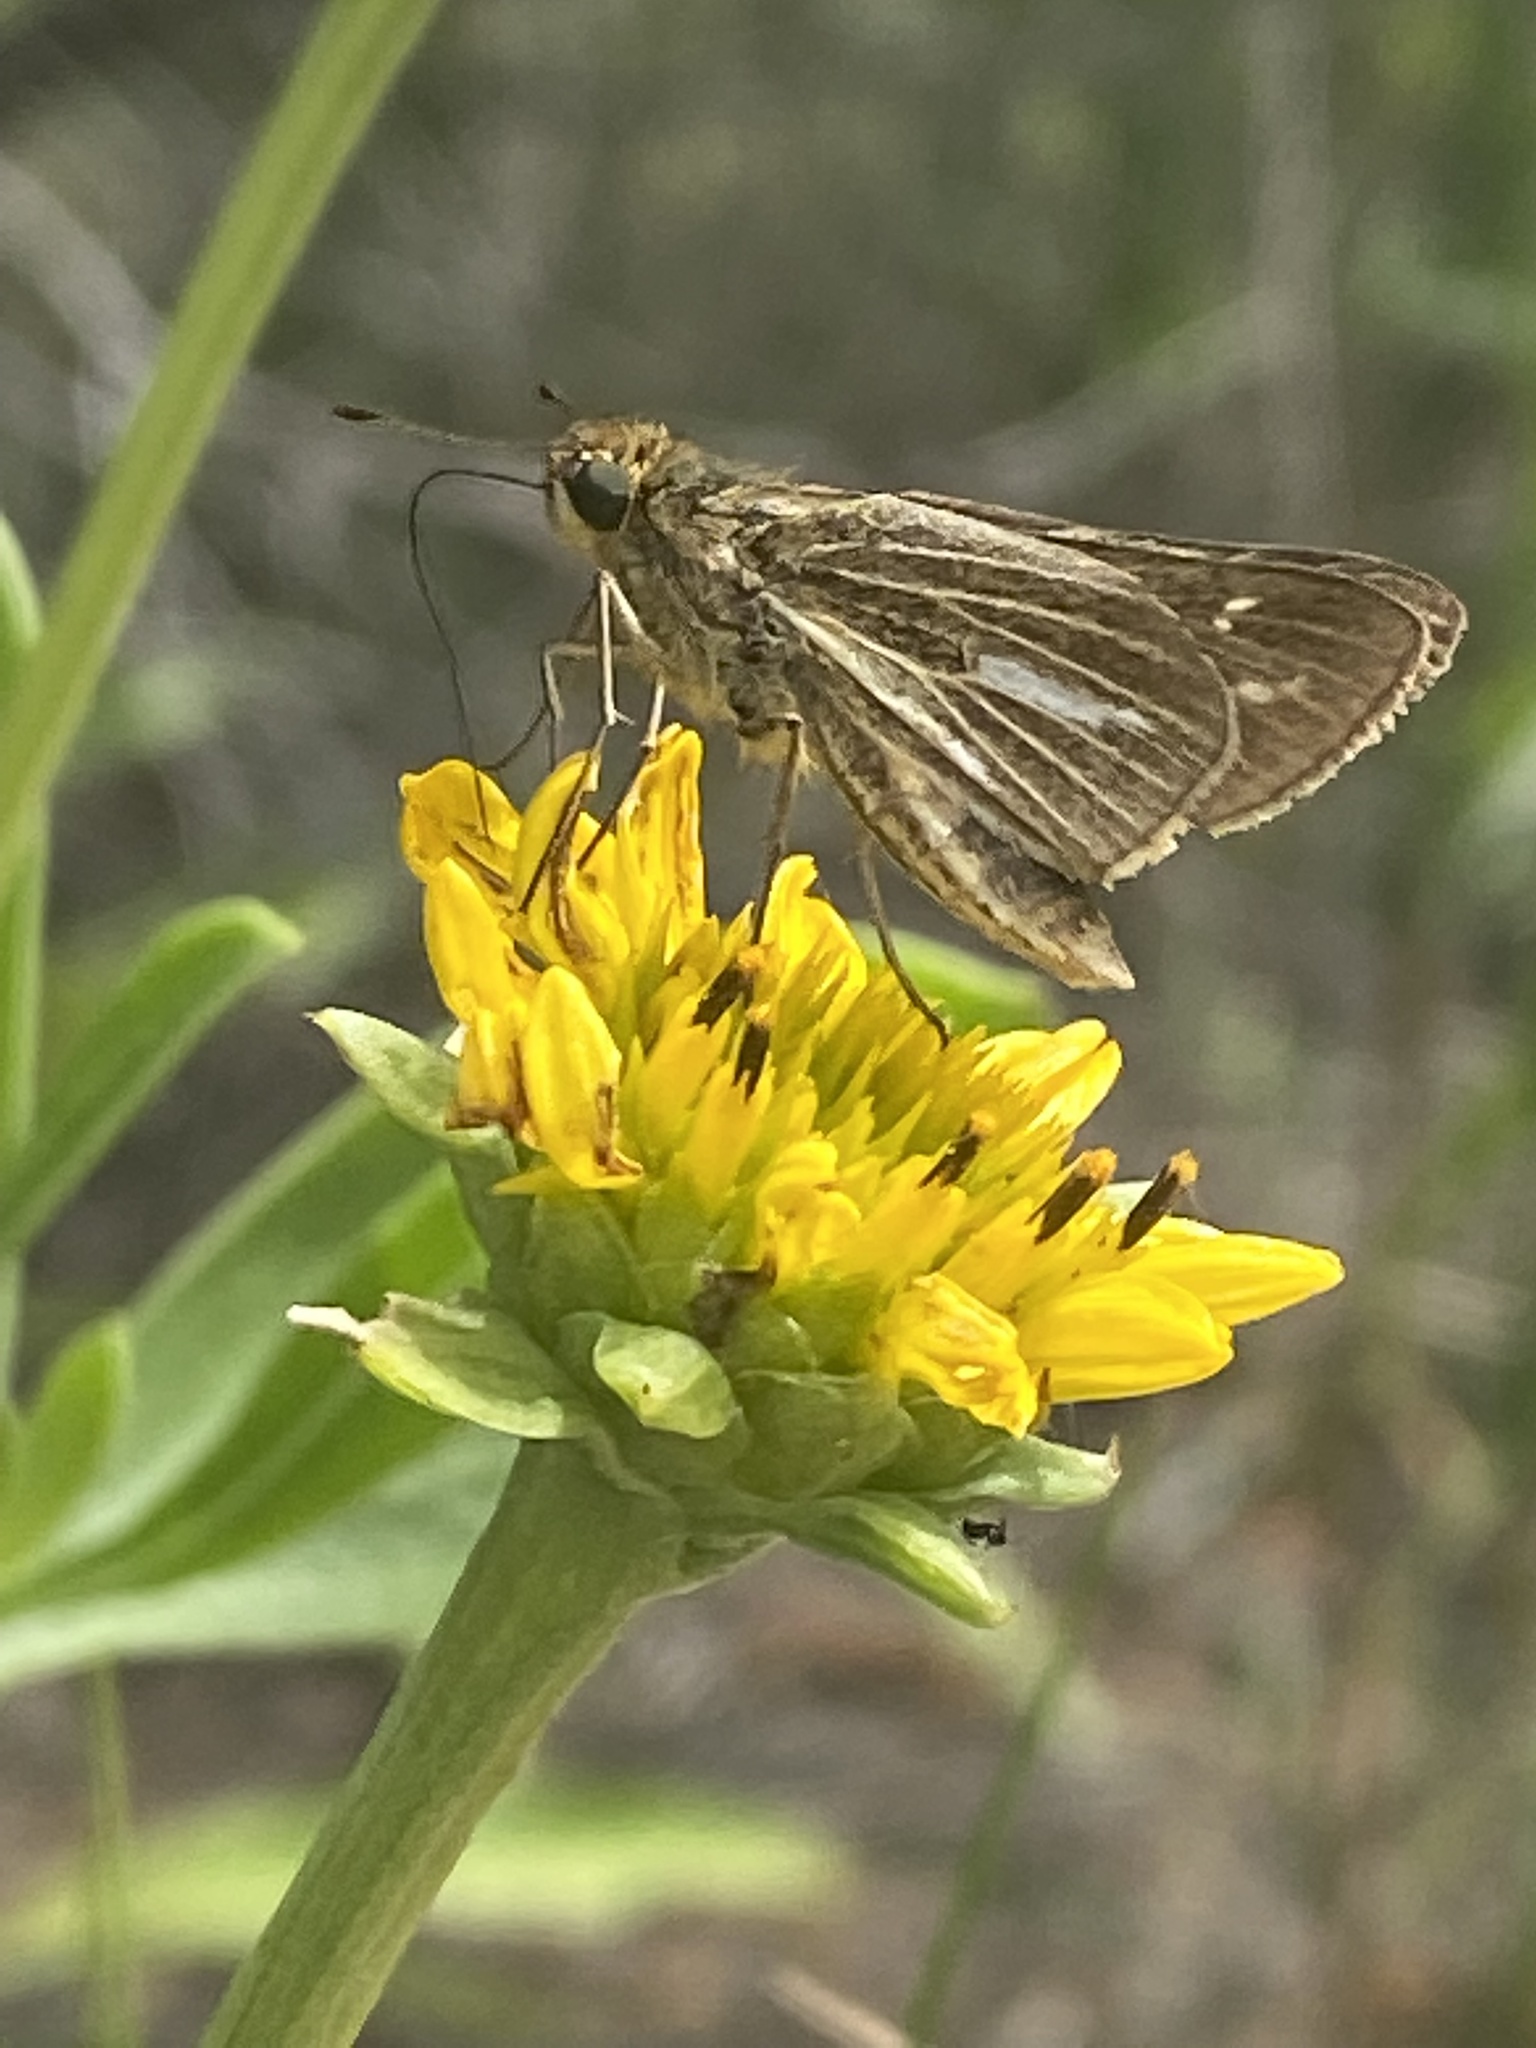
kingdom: Animalia
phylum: Arthropoda
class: Insecta
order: Lepidoptera
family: Hesperiidae
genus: Panoquina
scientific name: Panoquina panoquin
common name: Salt marsh skipper
